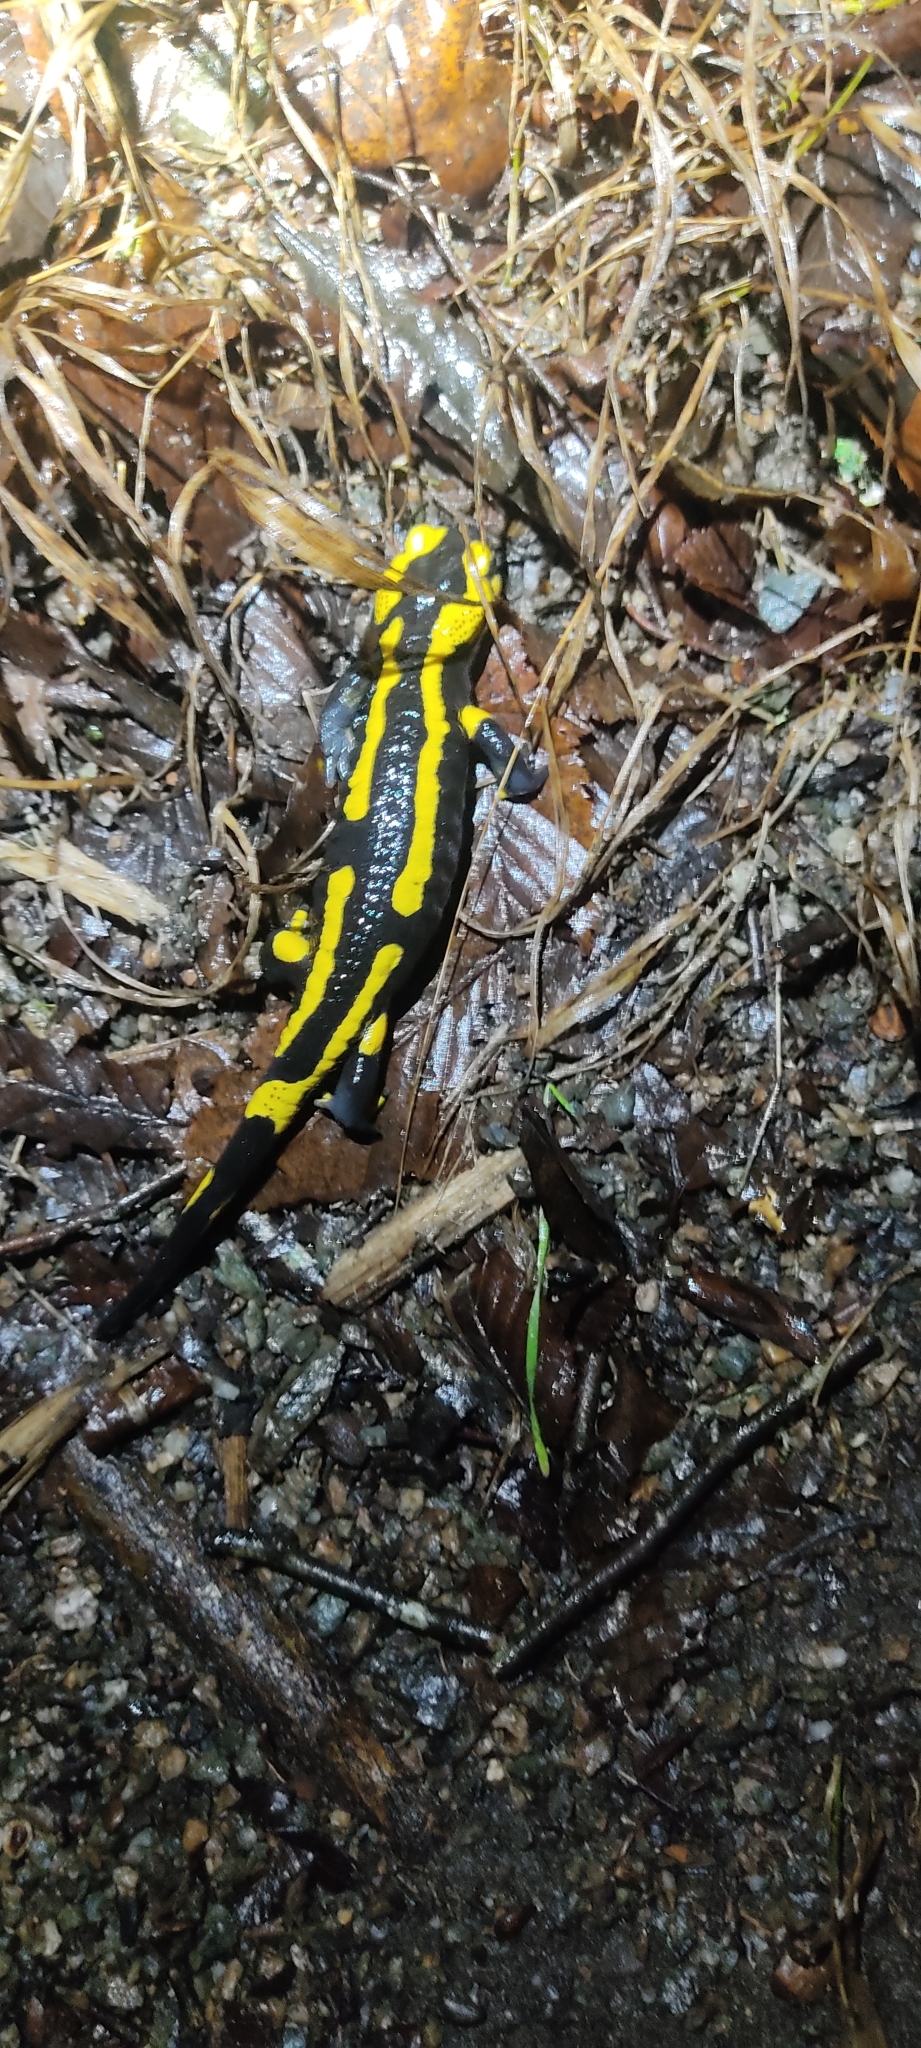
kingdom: Animalia
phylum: Chordata
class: Amphibia
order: Caudata
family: Salamandridae
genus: Salamandra
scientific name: Salamandra salamandra
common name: Fire salamander
